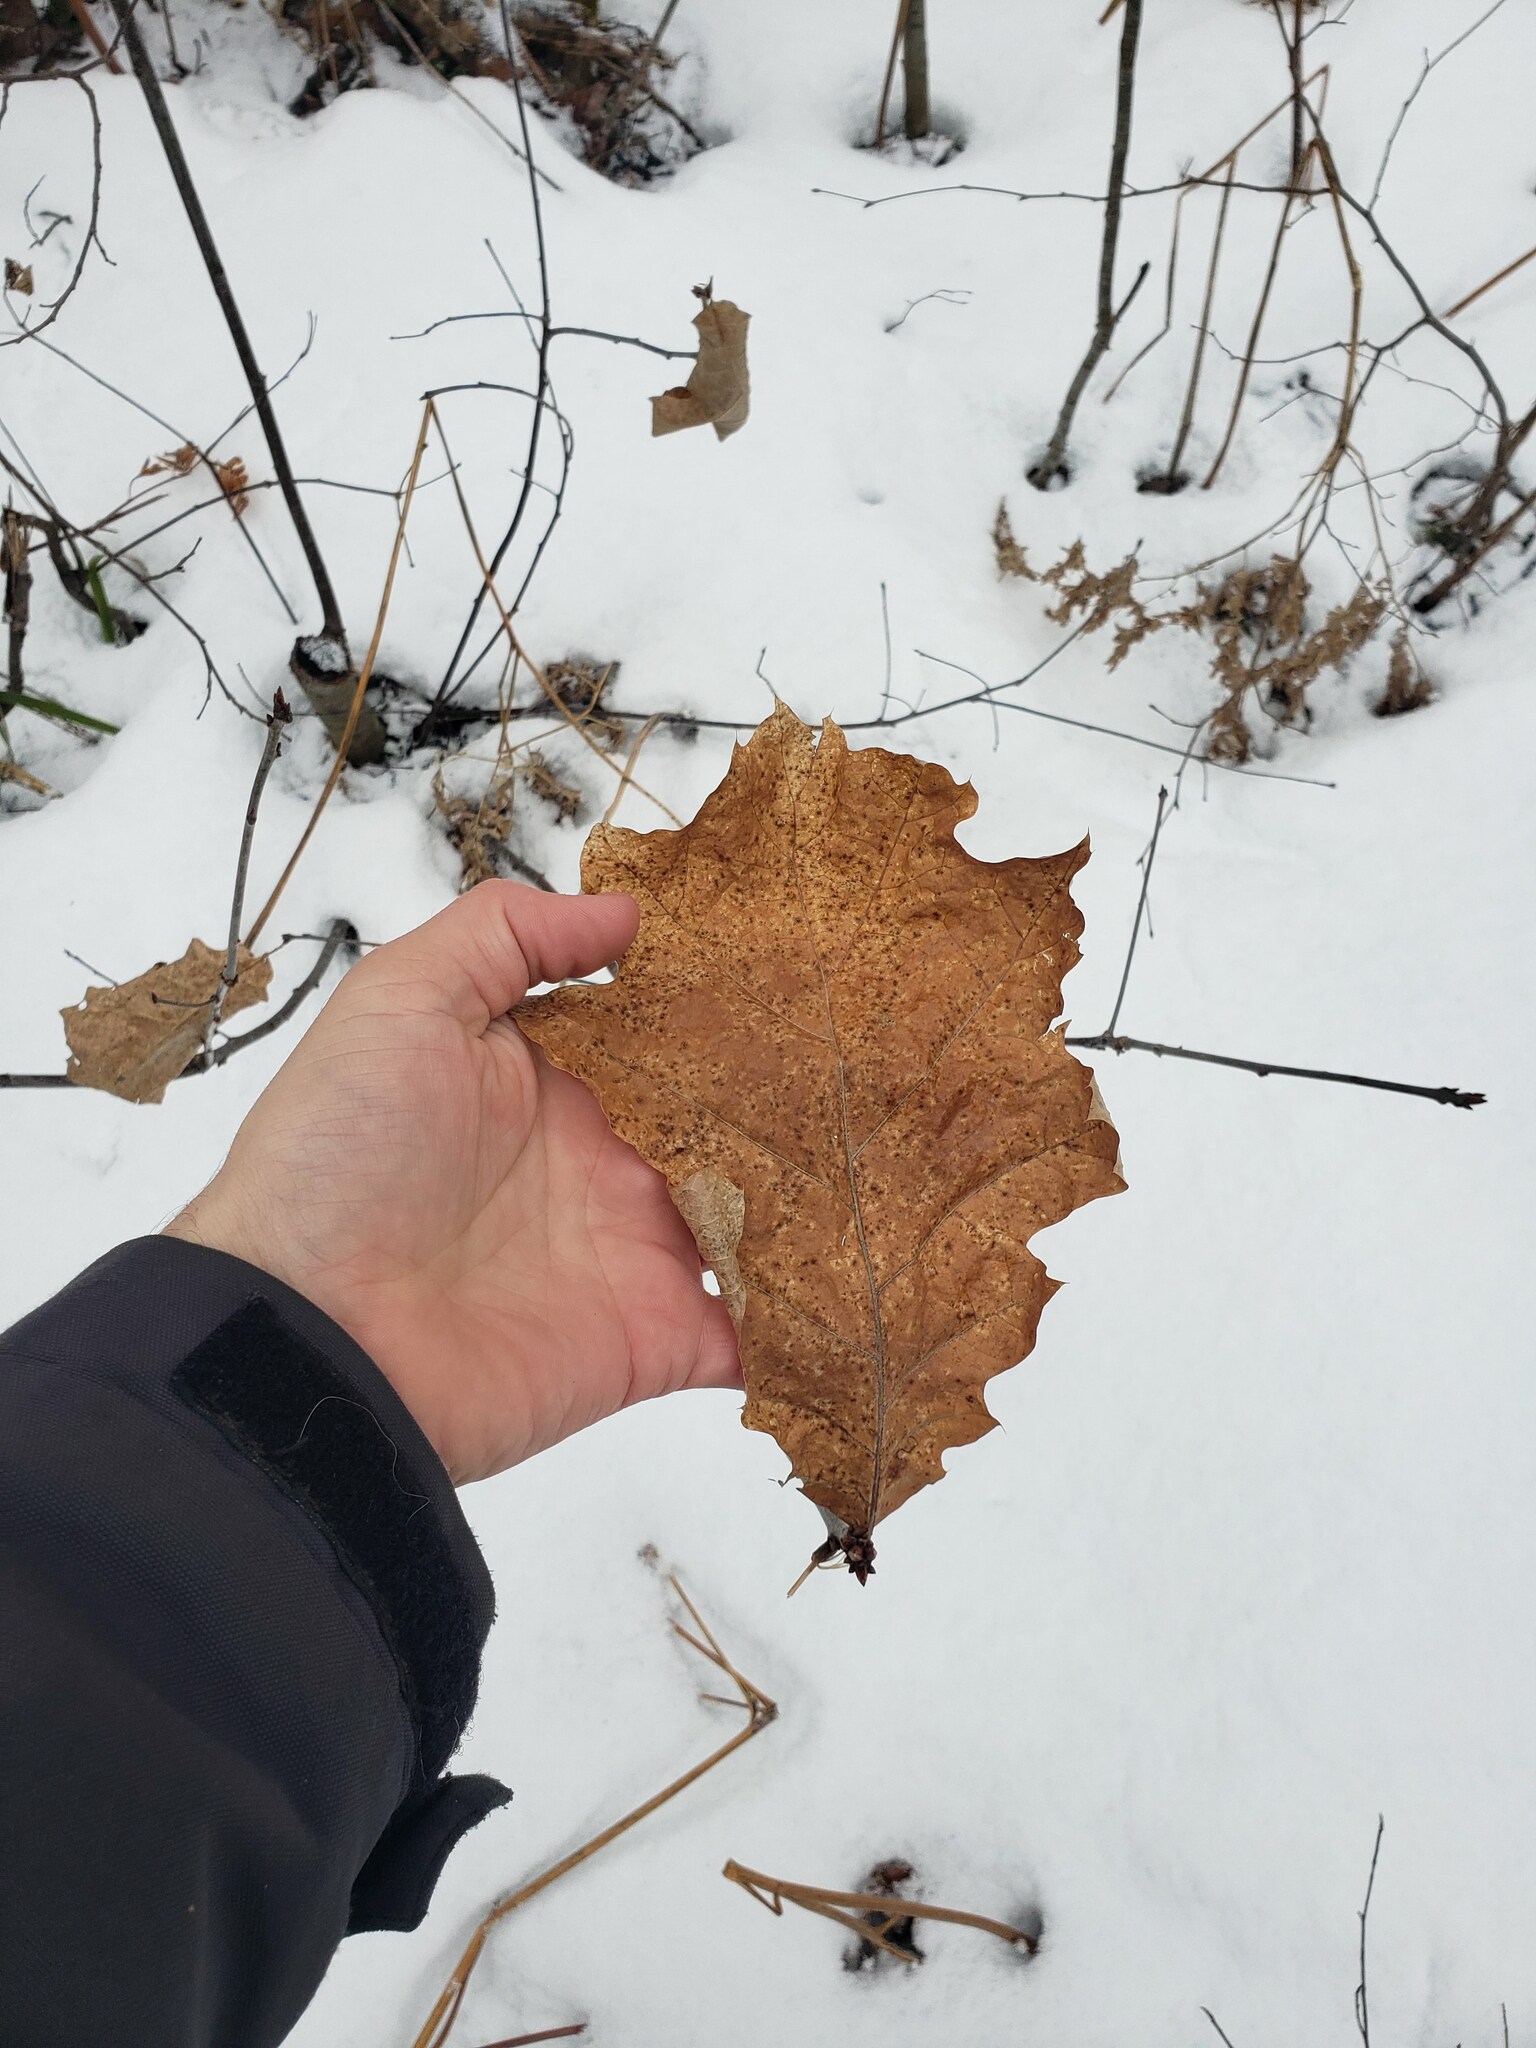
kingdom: Plantae
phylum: Tracheophyta
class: Magnoliopsida
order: Fagales
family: Fagaceae
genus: Quercus
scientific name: Quercus rubra
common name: Red oak
